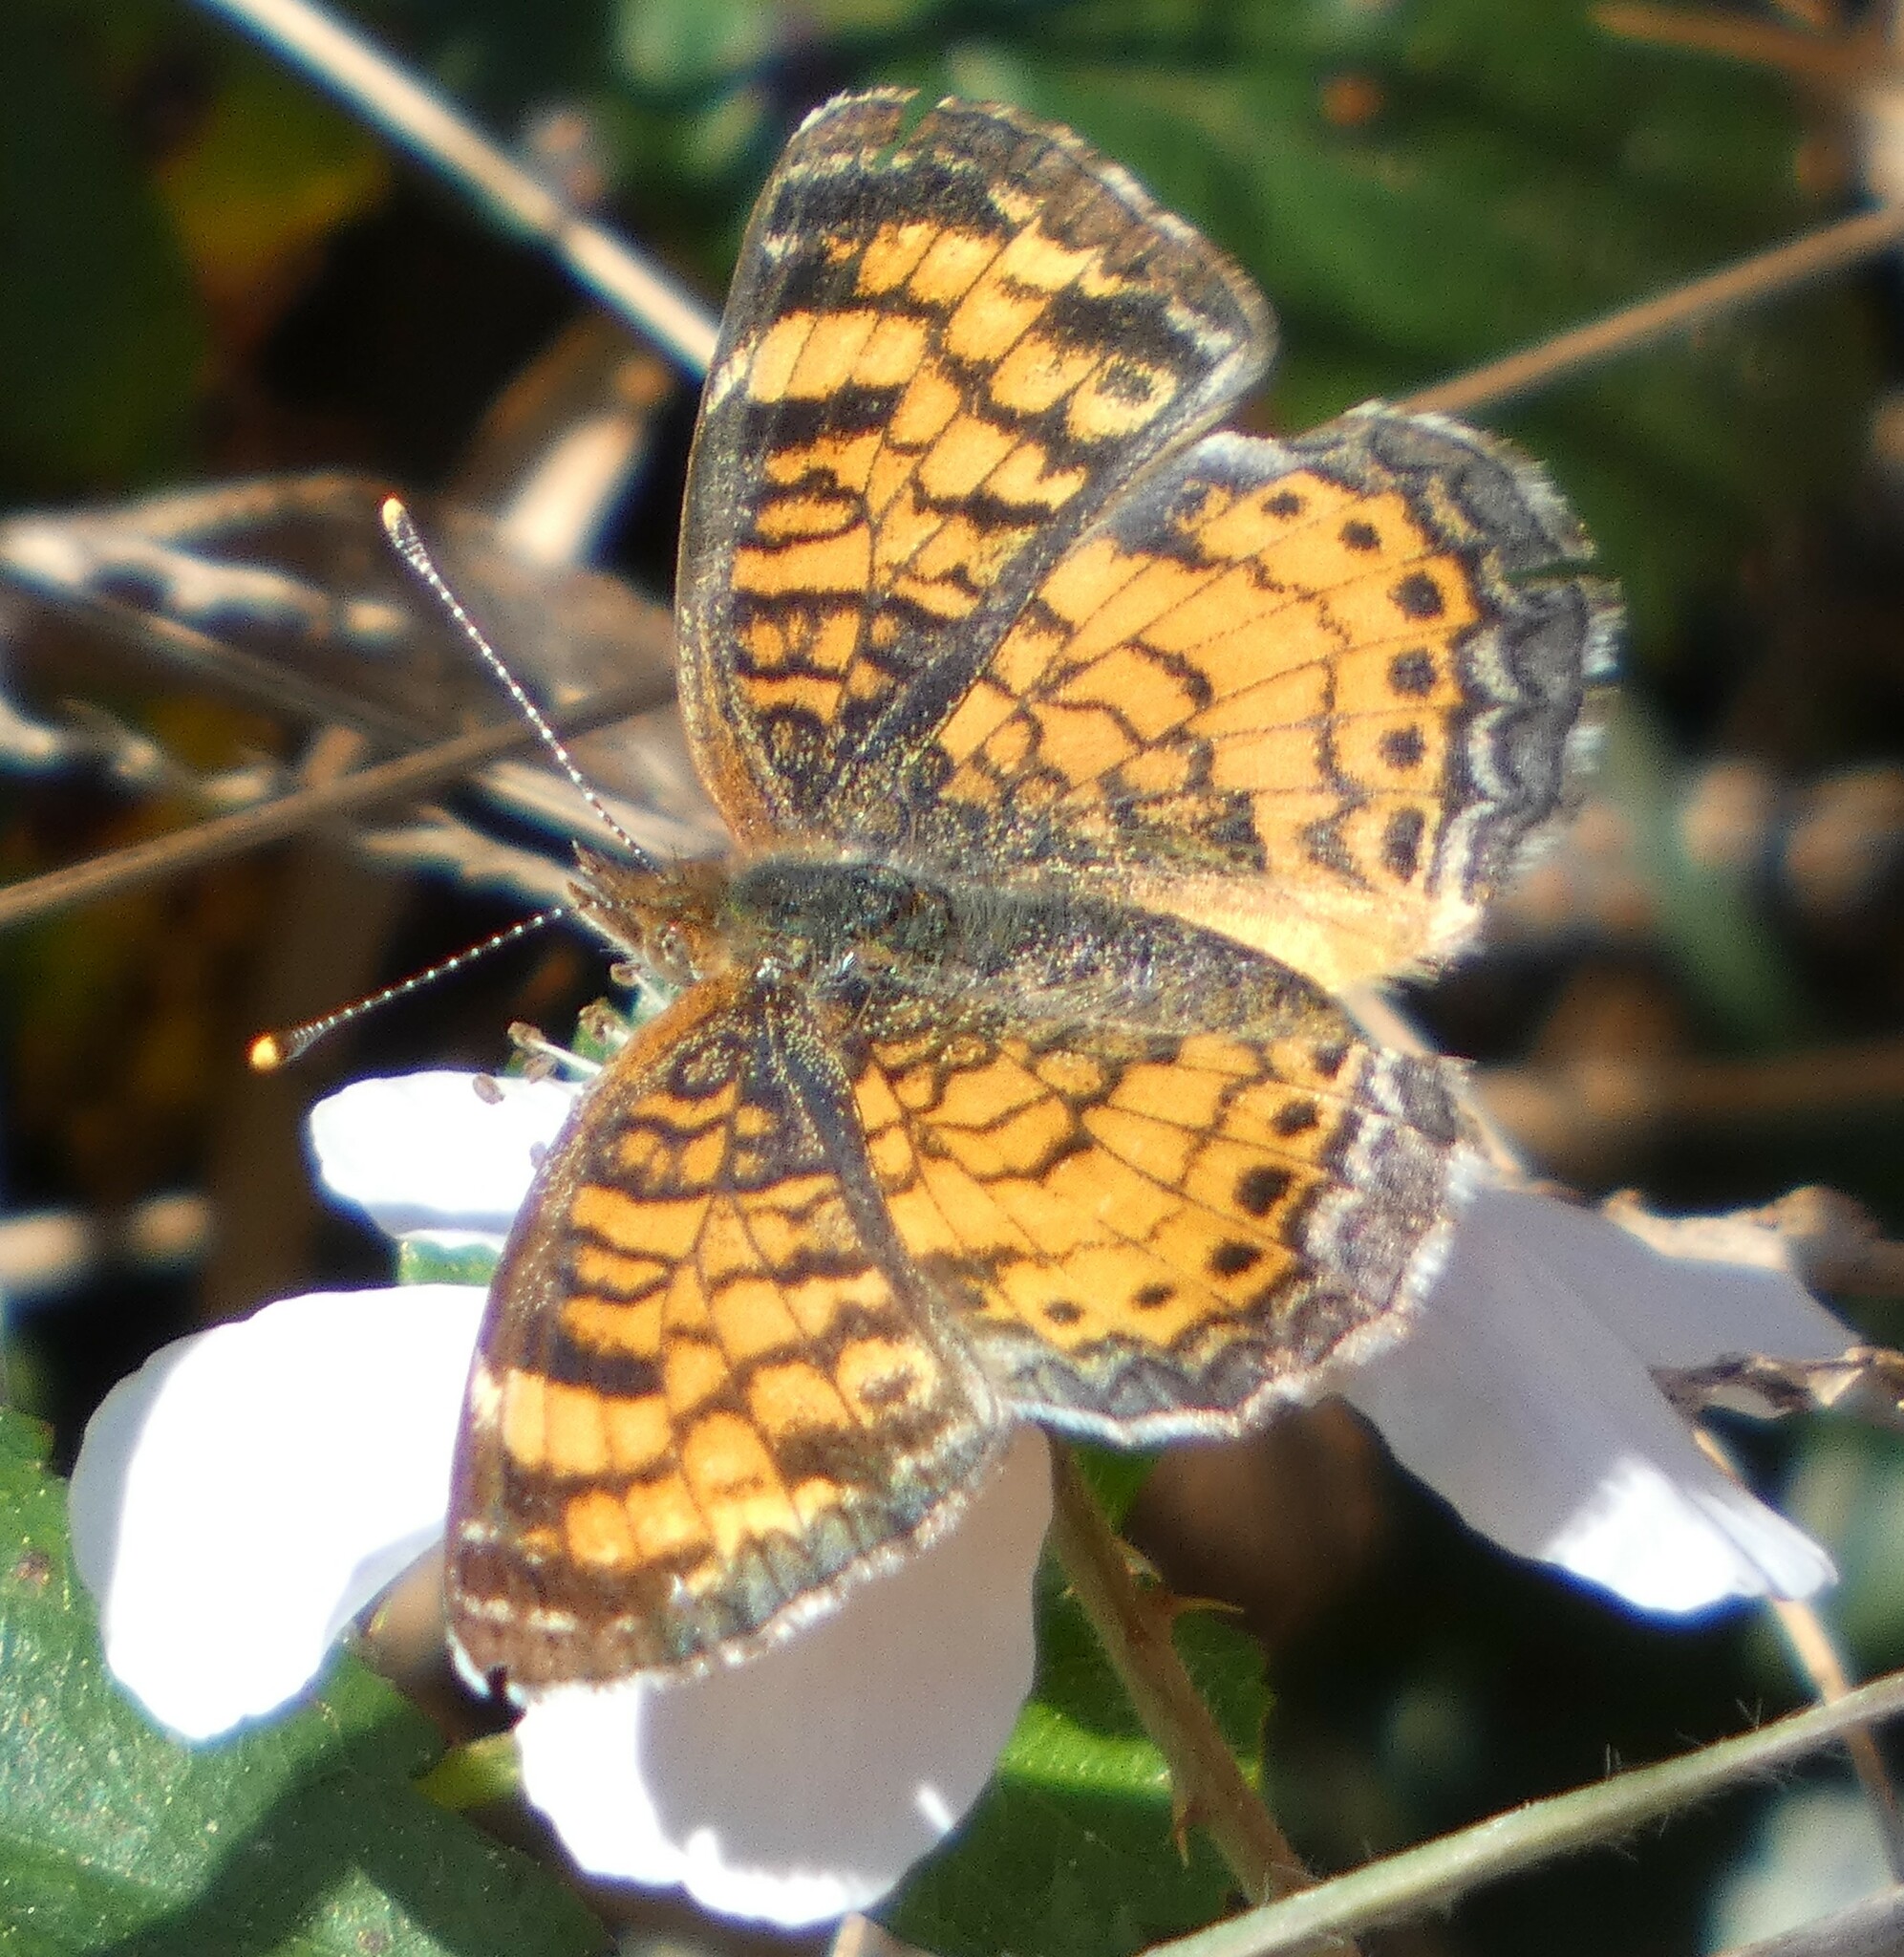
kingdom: Animalia
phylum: Arthropoda
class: Insecta
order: Lepidoptera
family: Nymphalidae
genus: Phyciodes
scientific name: Phyciodes tharos
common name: Pearl crescent
